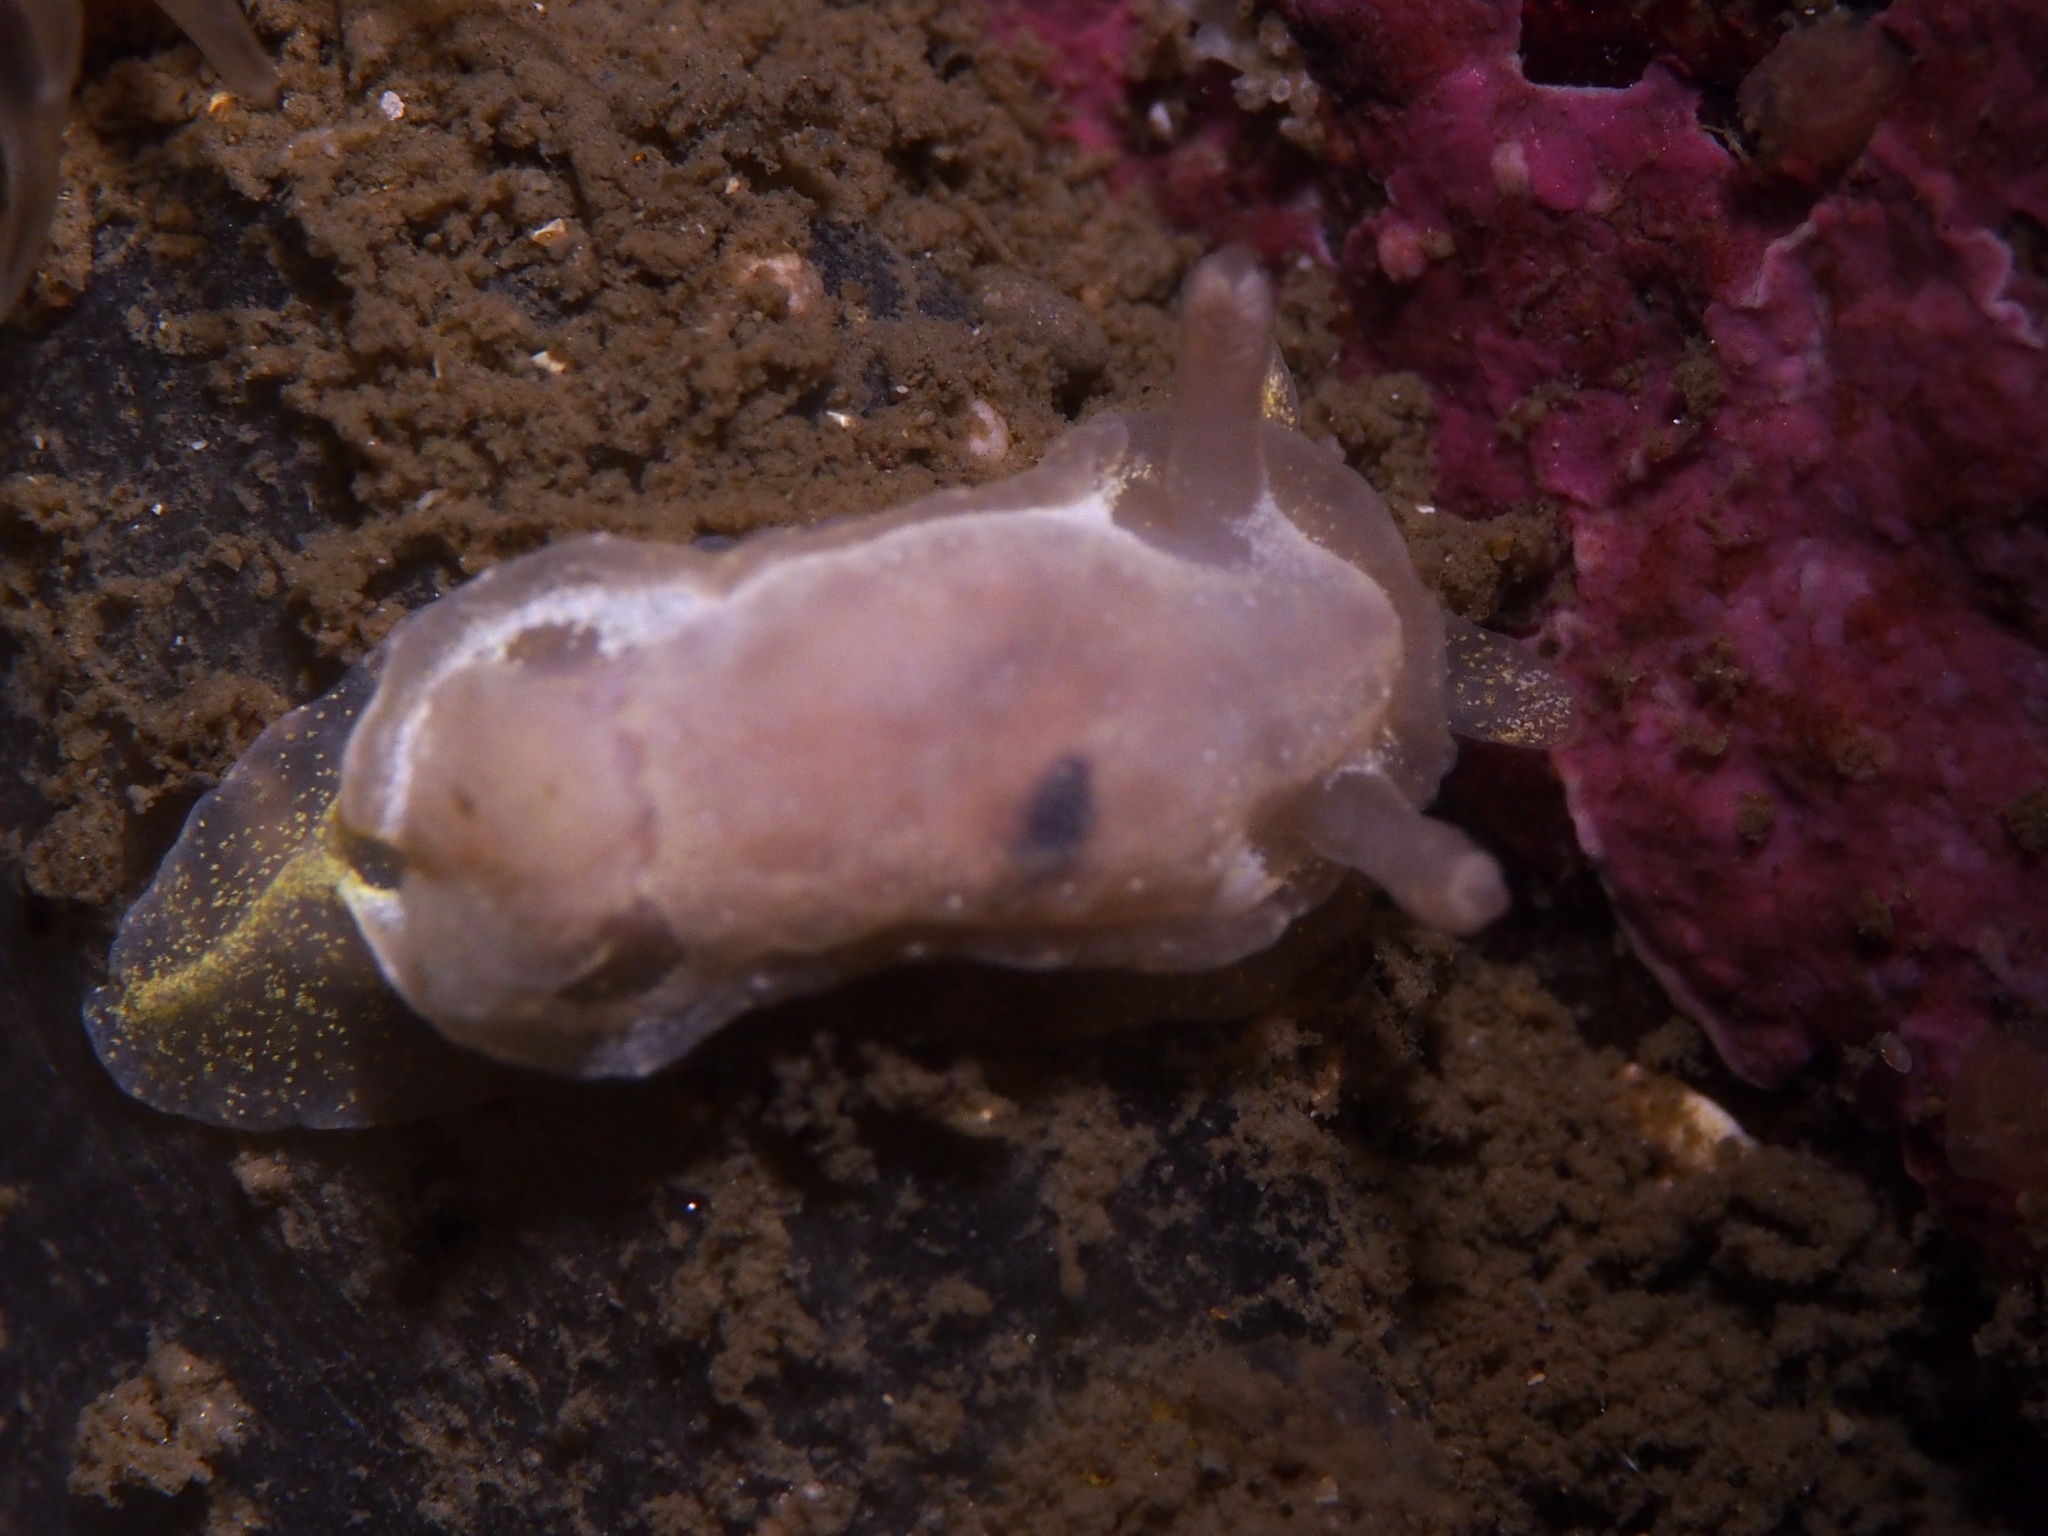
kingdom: Animalia
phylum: Mollusca
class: Gastropoda
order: Nudibranchia
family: Goniodorididae
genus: Okenia
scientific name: Okenia
